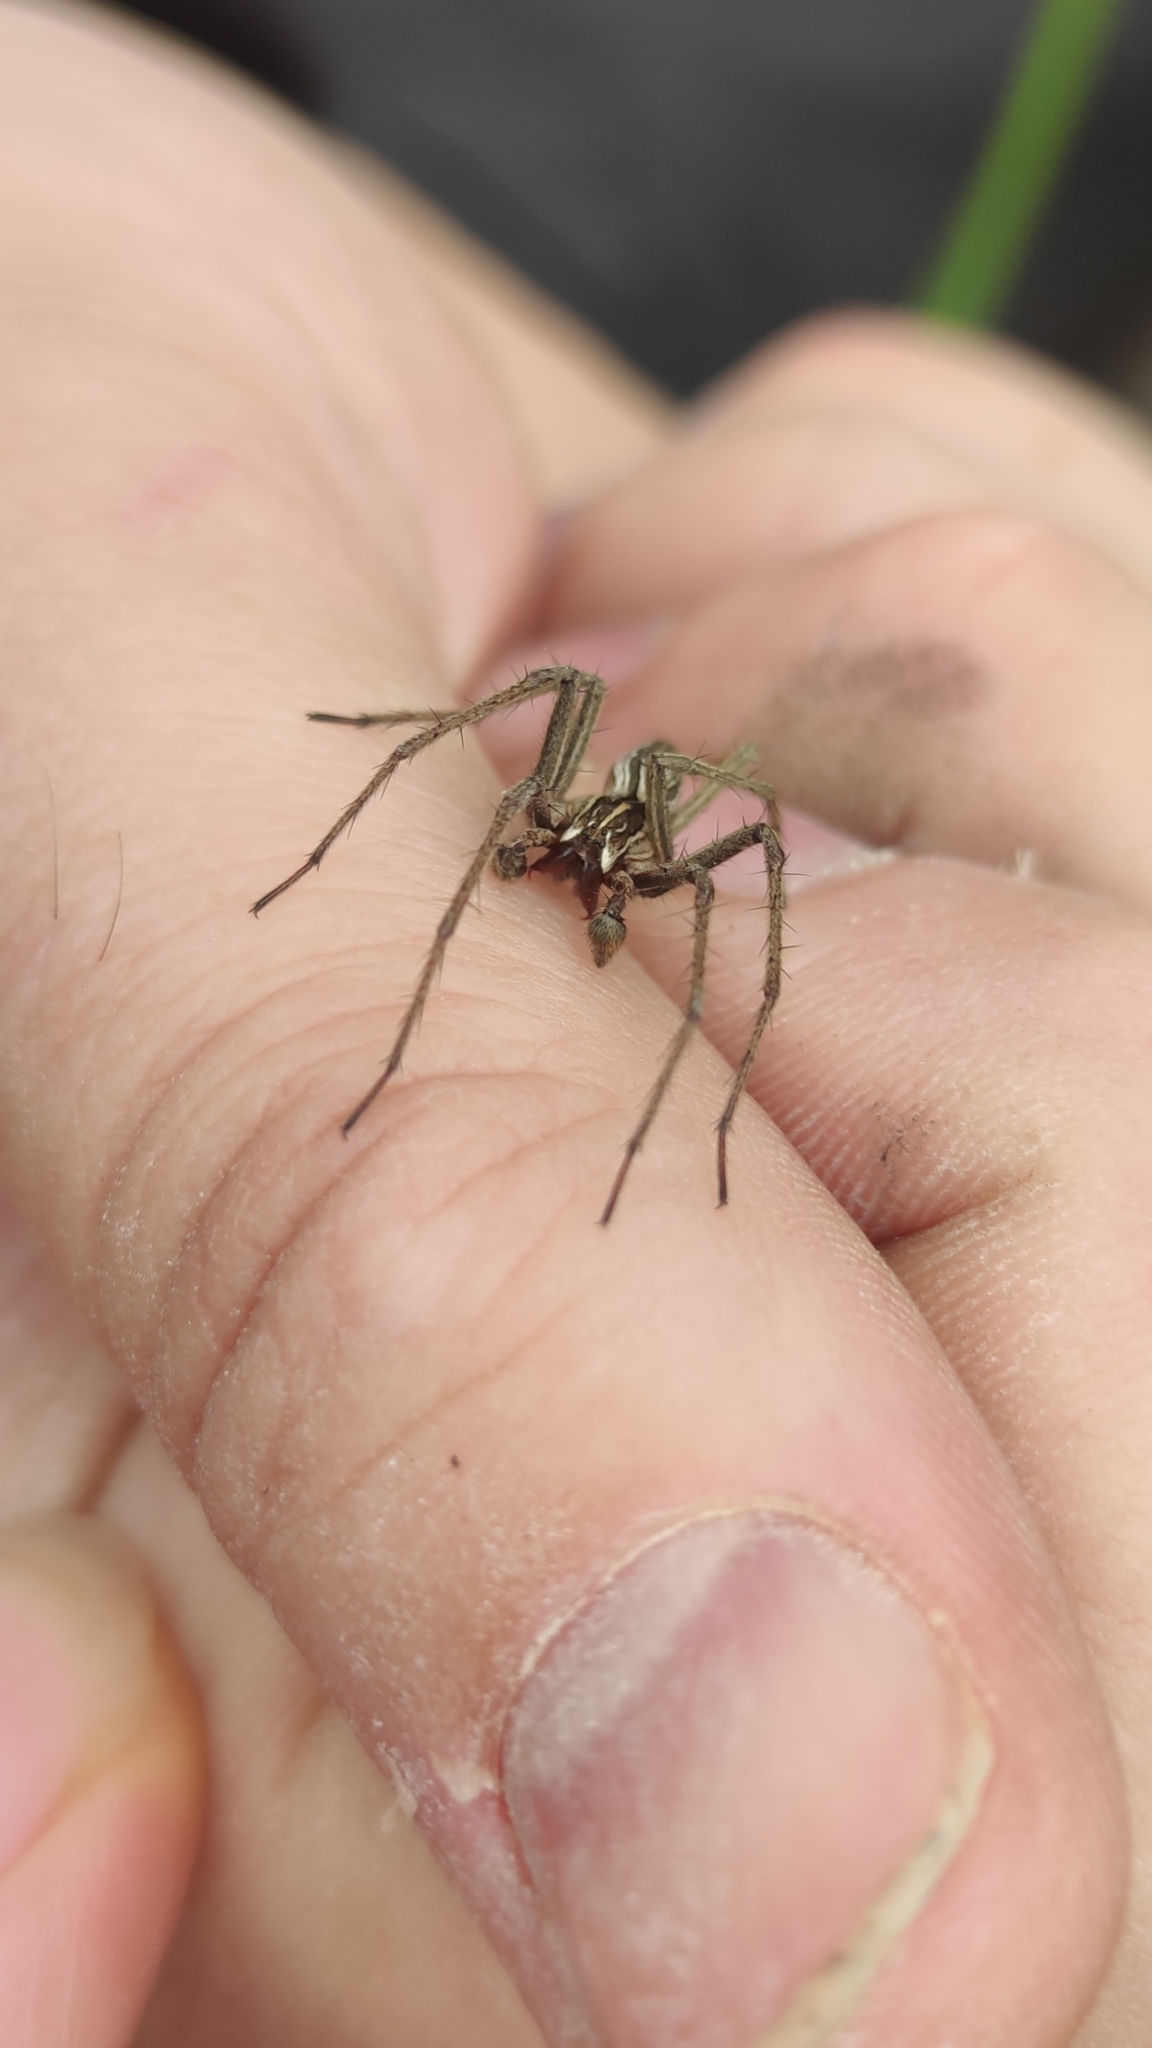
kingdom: Animalia
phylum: Arthropoda
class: Arachnida
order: Araneae
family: Pisauridae
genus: Pisaura
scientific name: Pisaura mirabilis
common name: Tent spider
